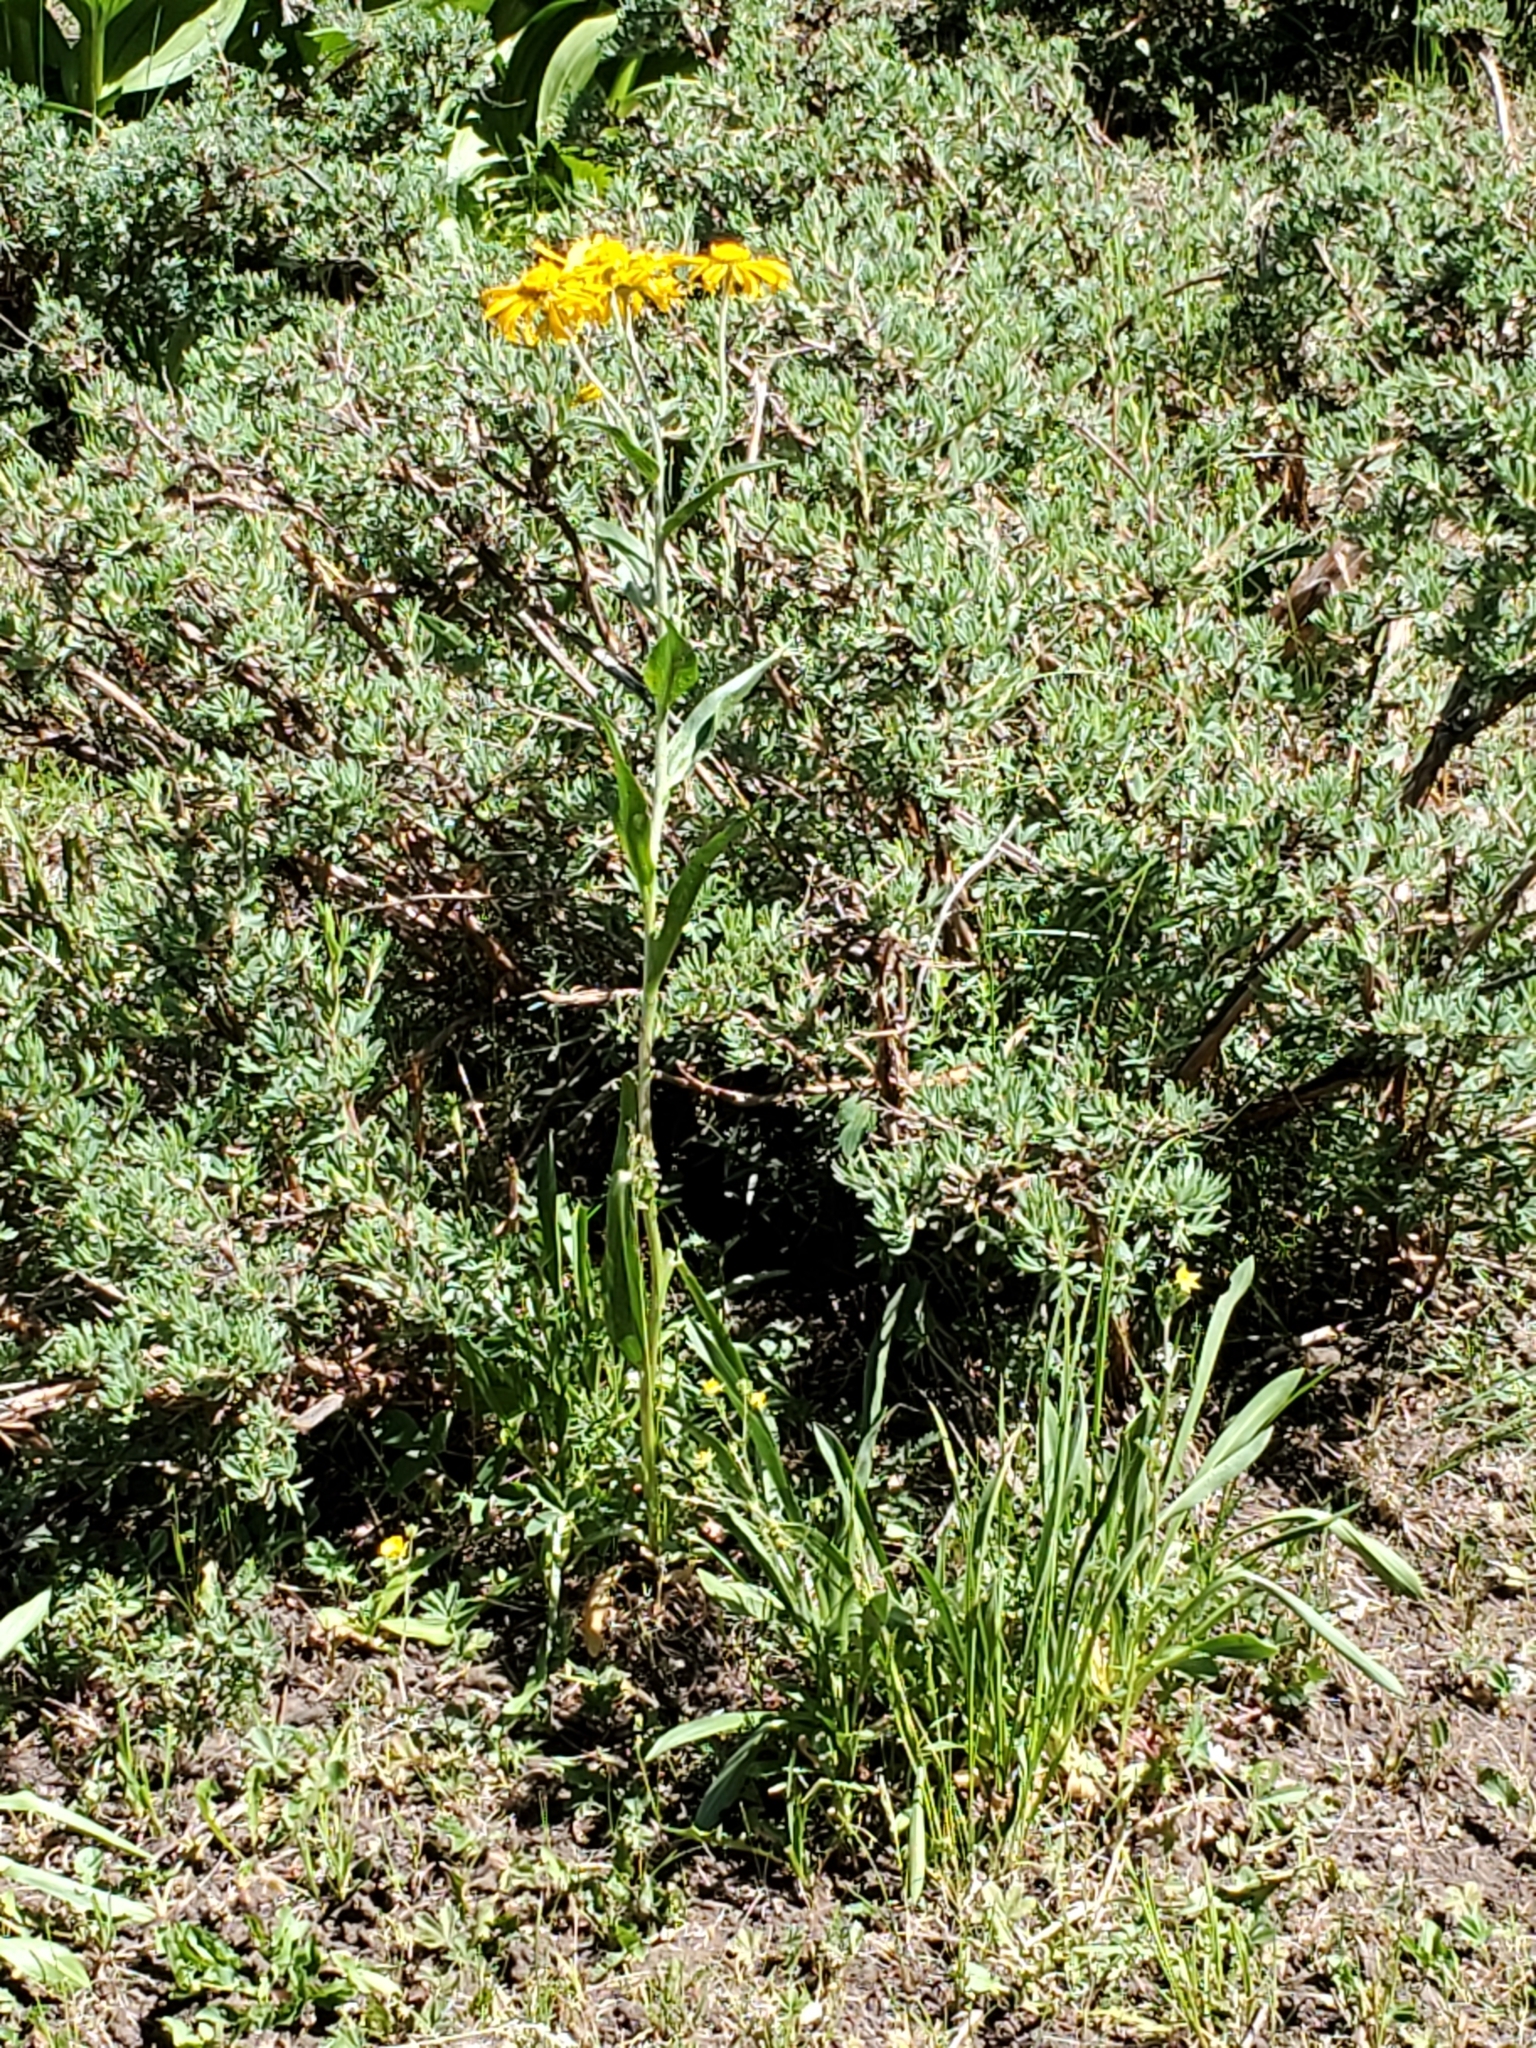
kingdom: Plantae
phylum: Tracheophyta
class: Magnoliopsida
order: Asterales
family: Asteraceae
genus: Hymenoxys
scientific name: Hymenoxys hoopesii
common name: Orange-sneezeweed
